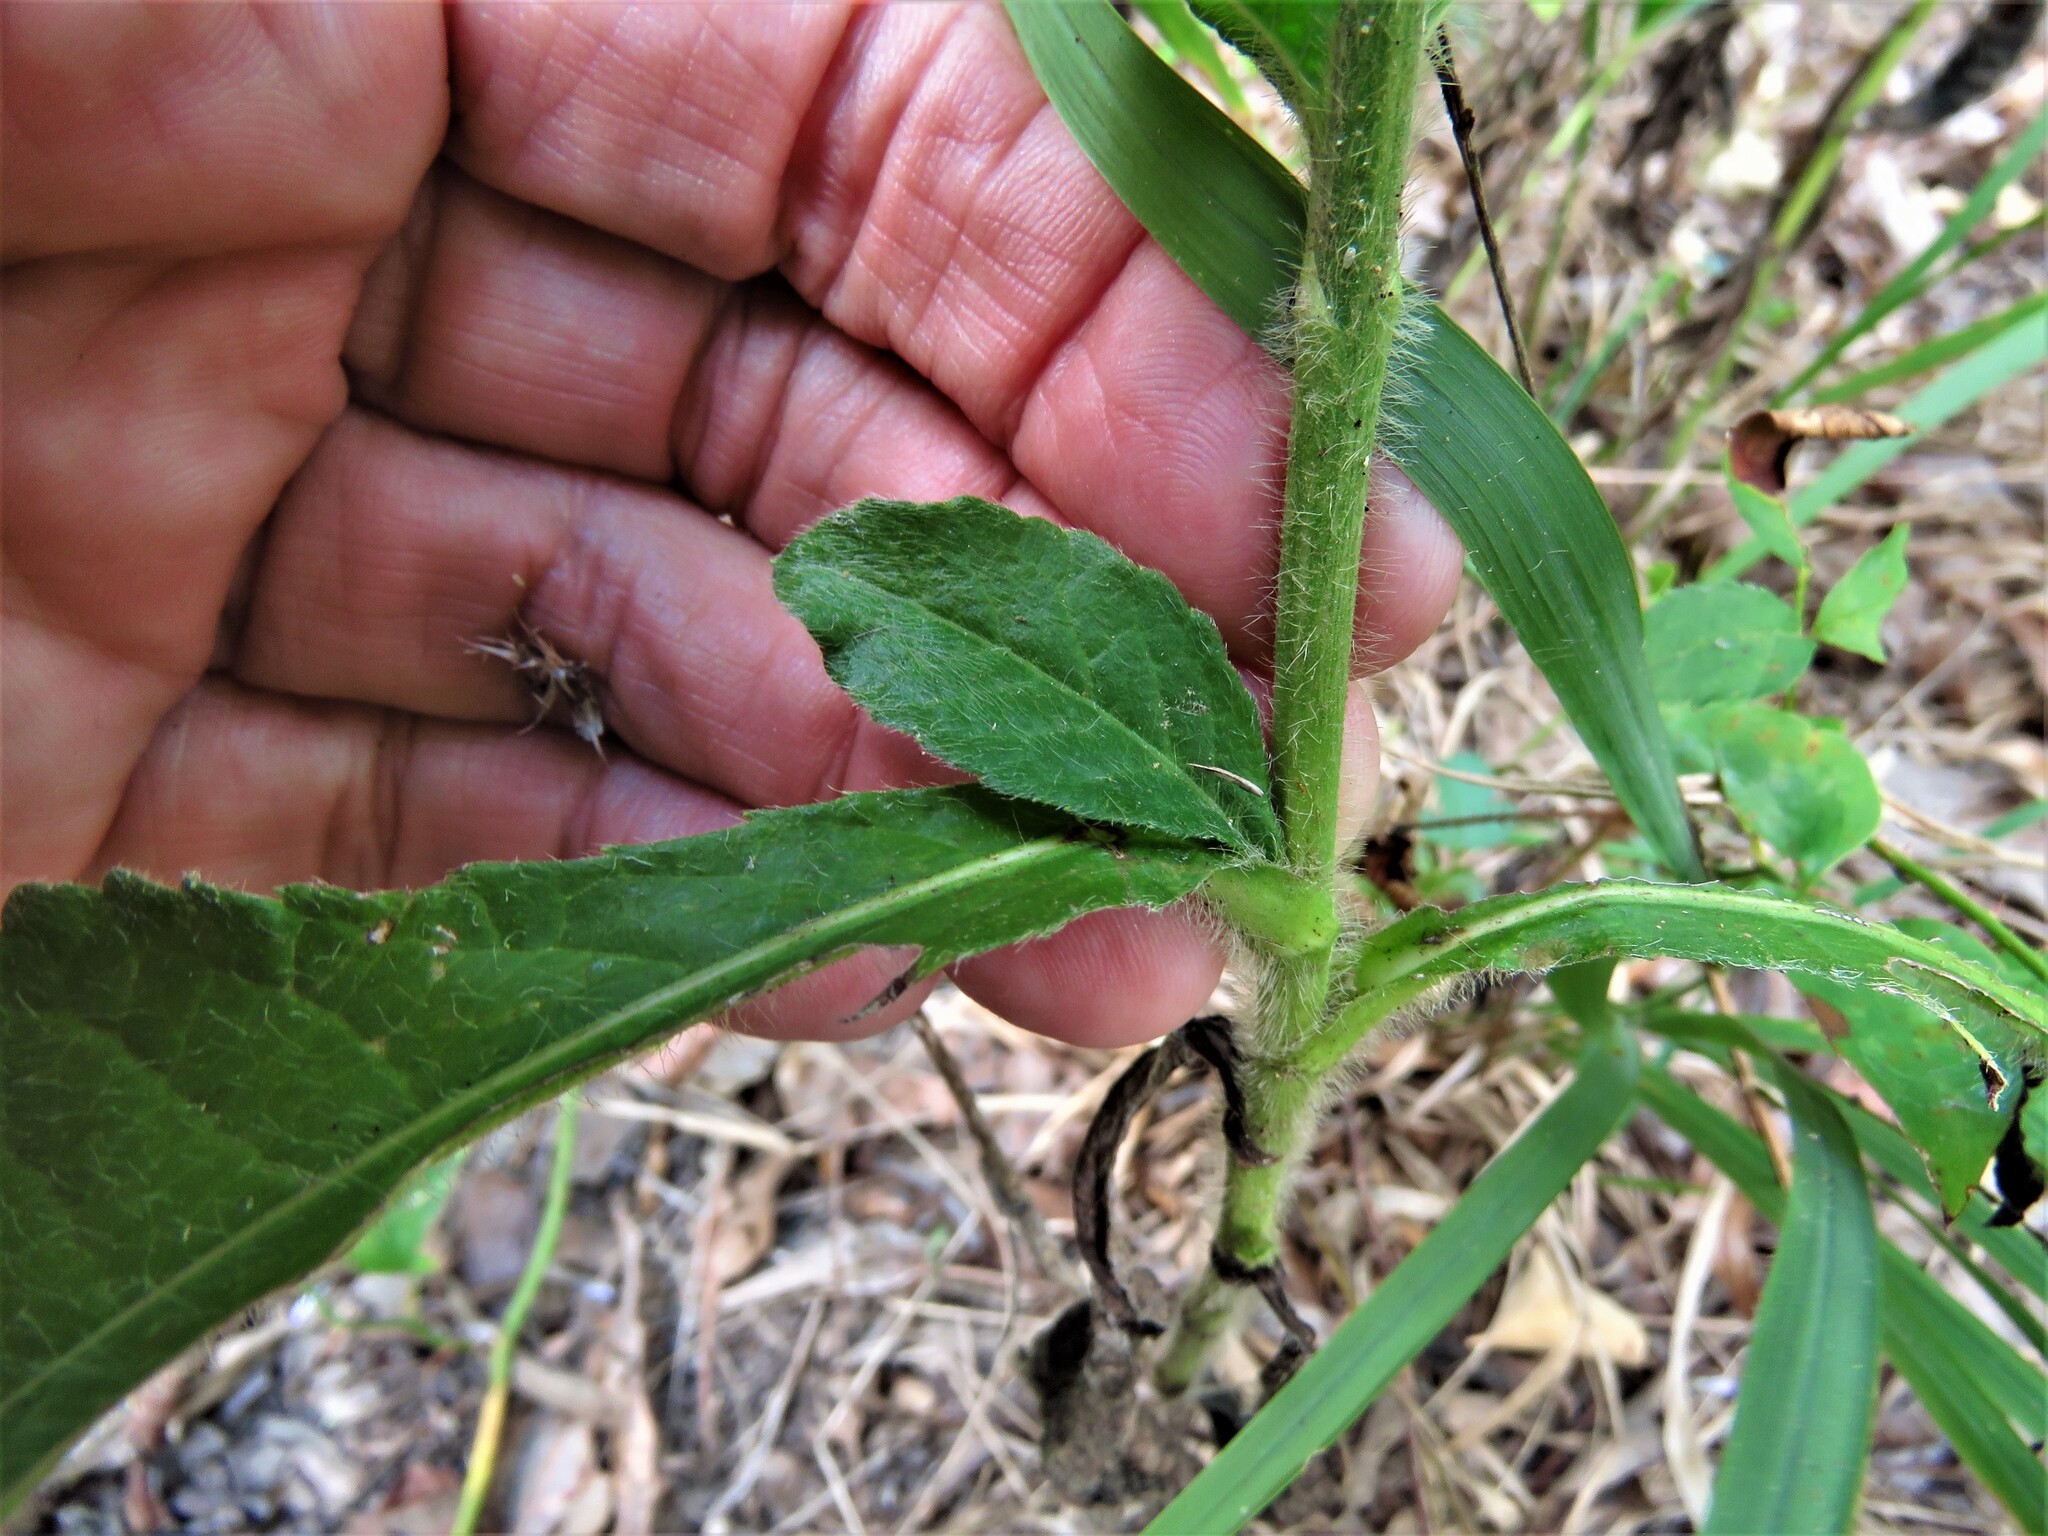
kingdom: Plantae
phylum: Tracheophyta
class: Magnoliopsida
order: Asterales
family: Asteraceae
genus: Elephantopus
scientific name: Elephantopus carolinianus
